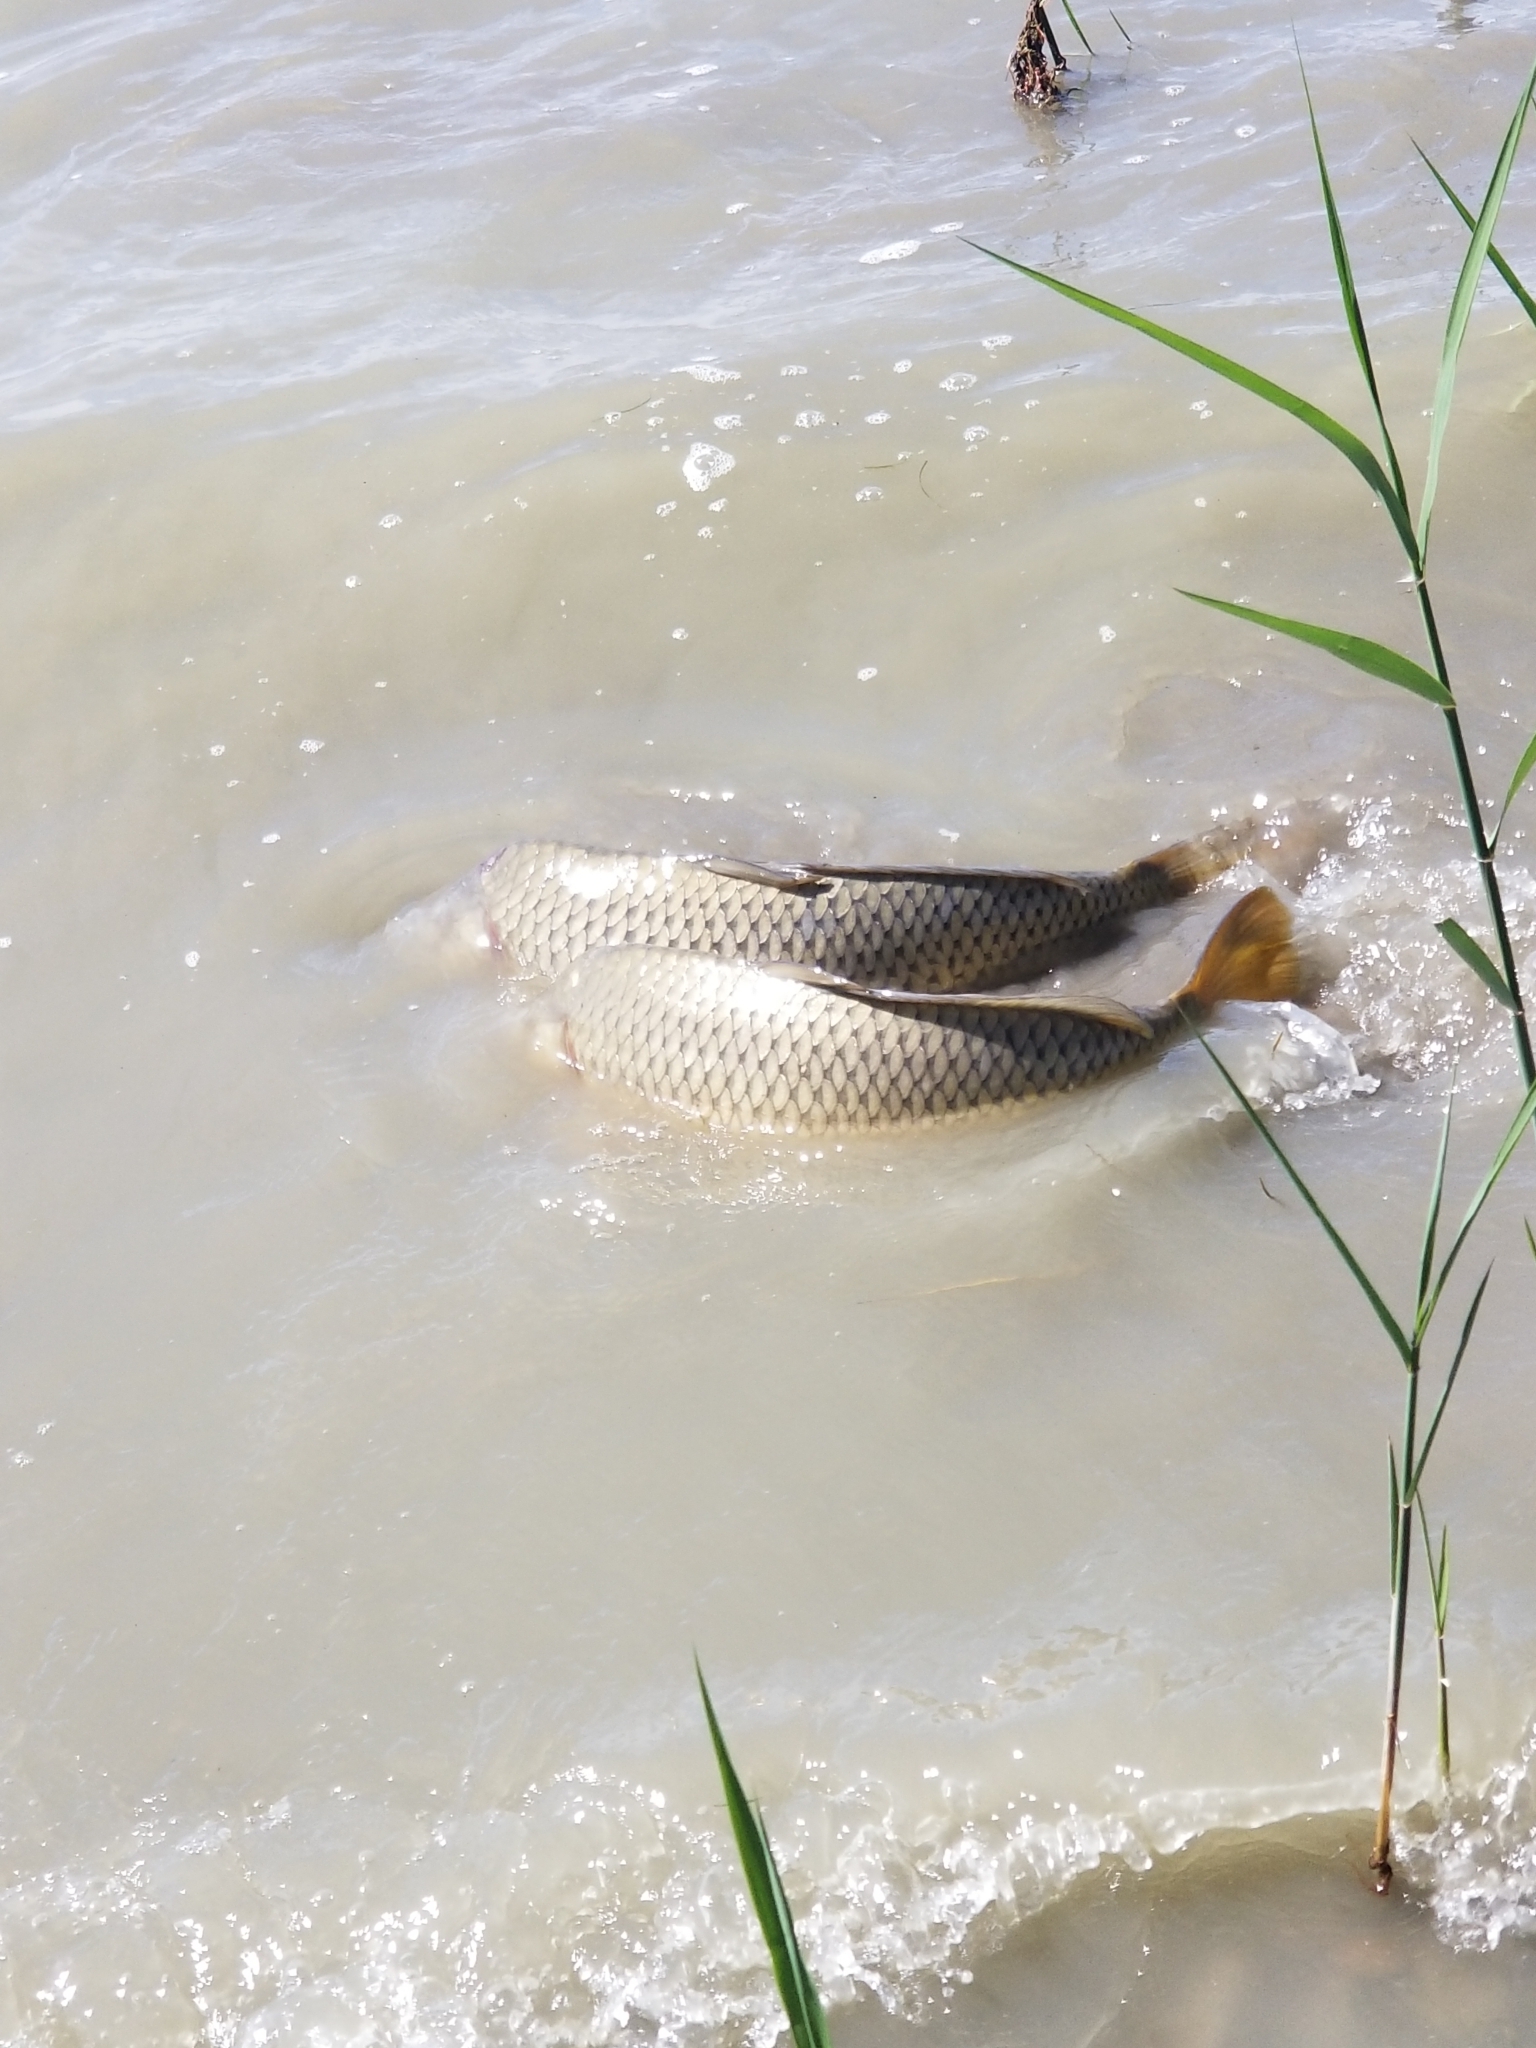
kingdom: Animalia
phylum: Chordata
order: Cypriniformes
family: Cyprinidae
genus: Cyprinus
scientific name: Cyprinus carpio
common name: Common carp
